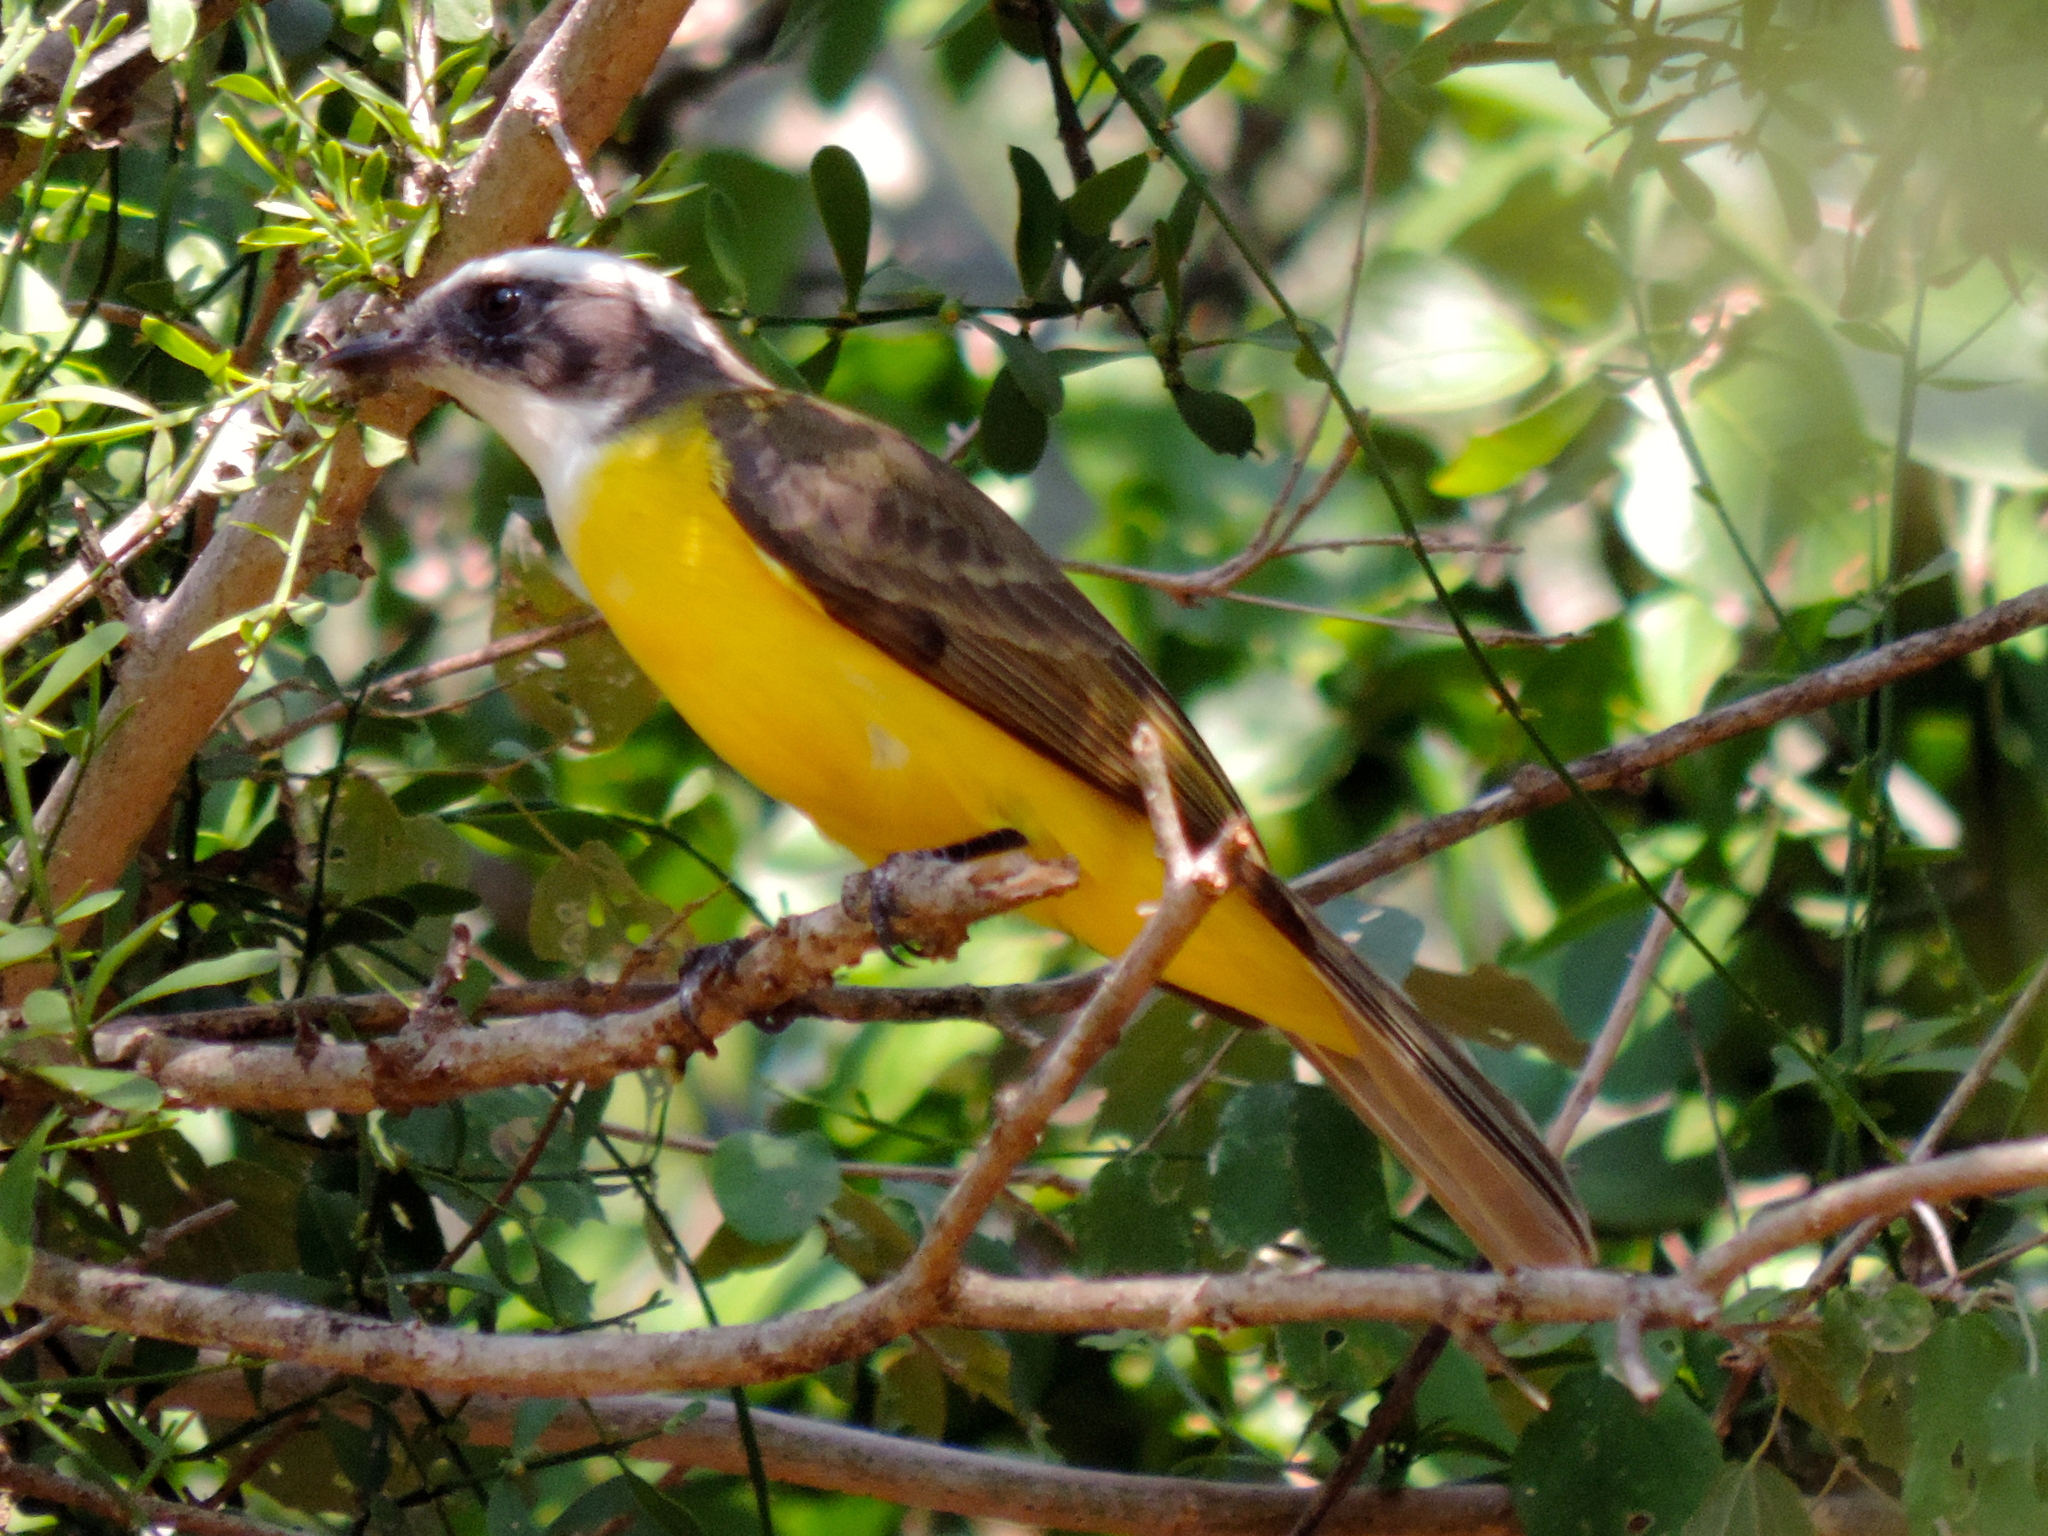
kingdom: Animalia
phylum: Chordata
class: Aves
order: Passeriformes
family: Tyrannidae
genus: Myiozetetes
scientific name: Myiozetetes similis
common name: Social flycatcher
